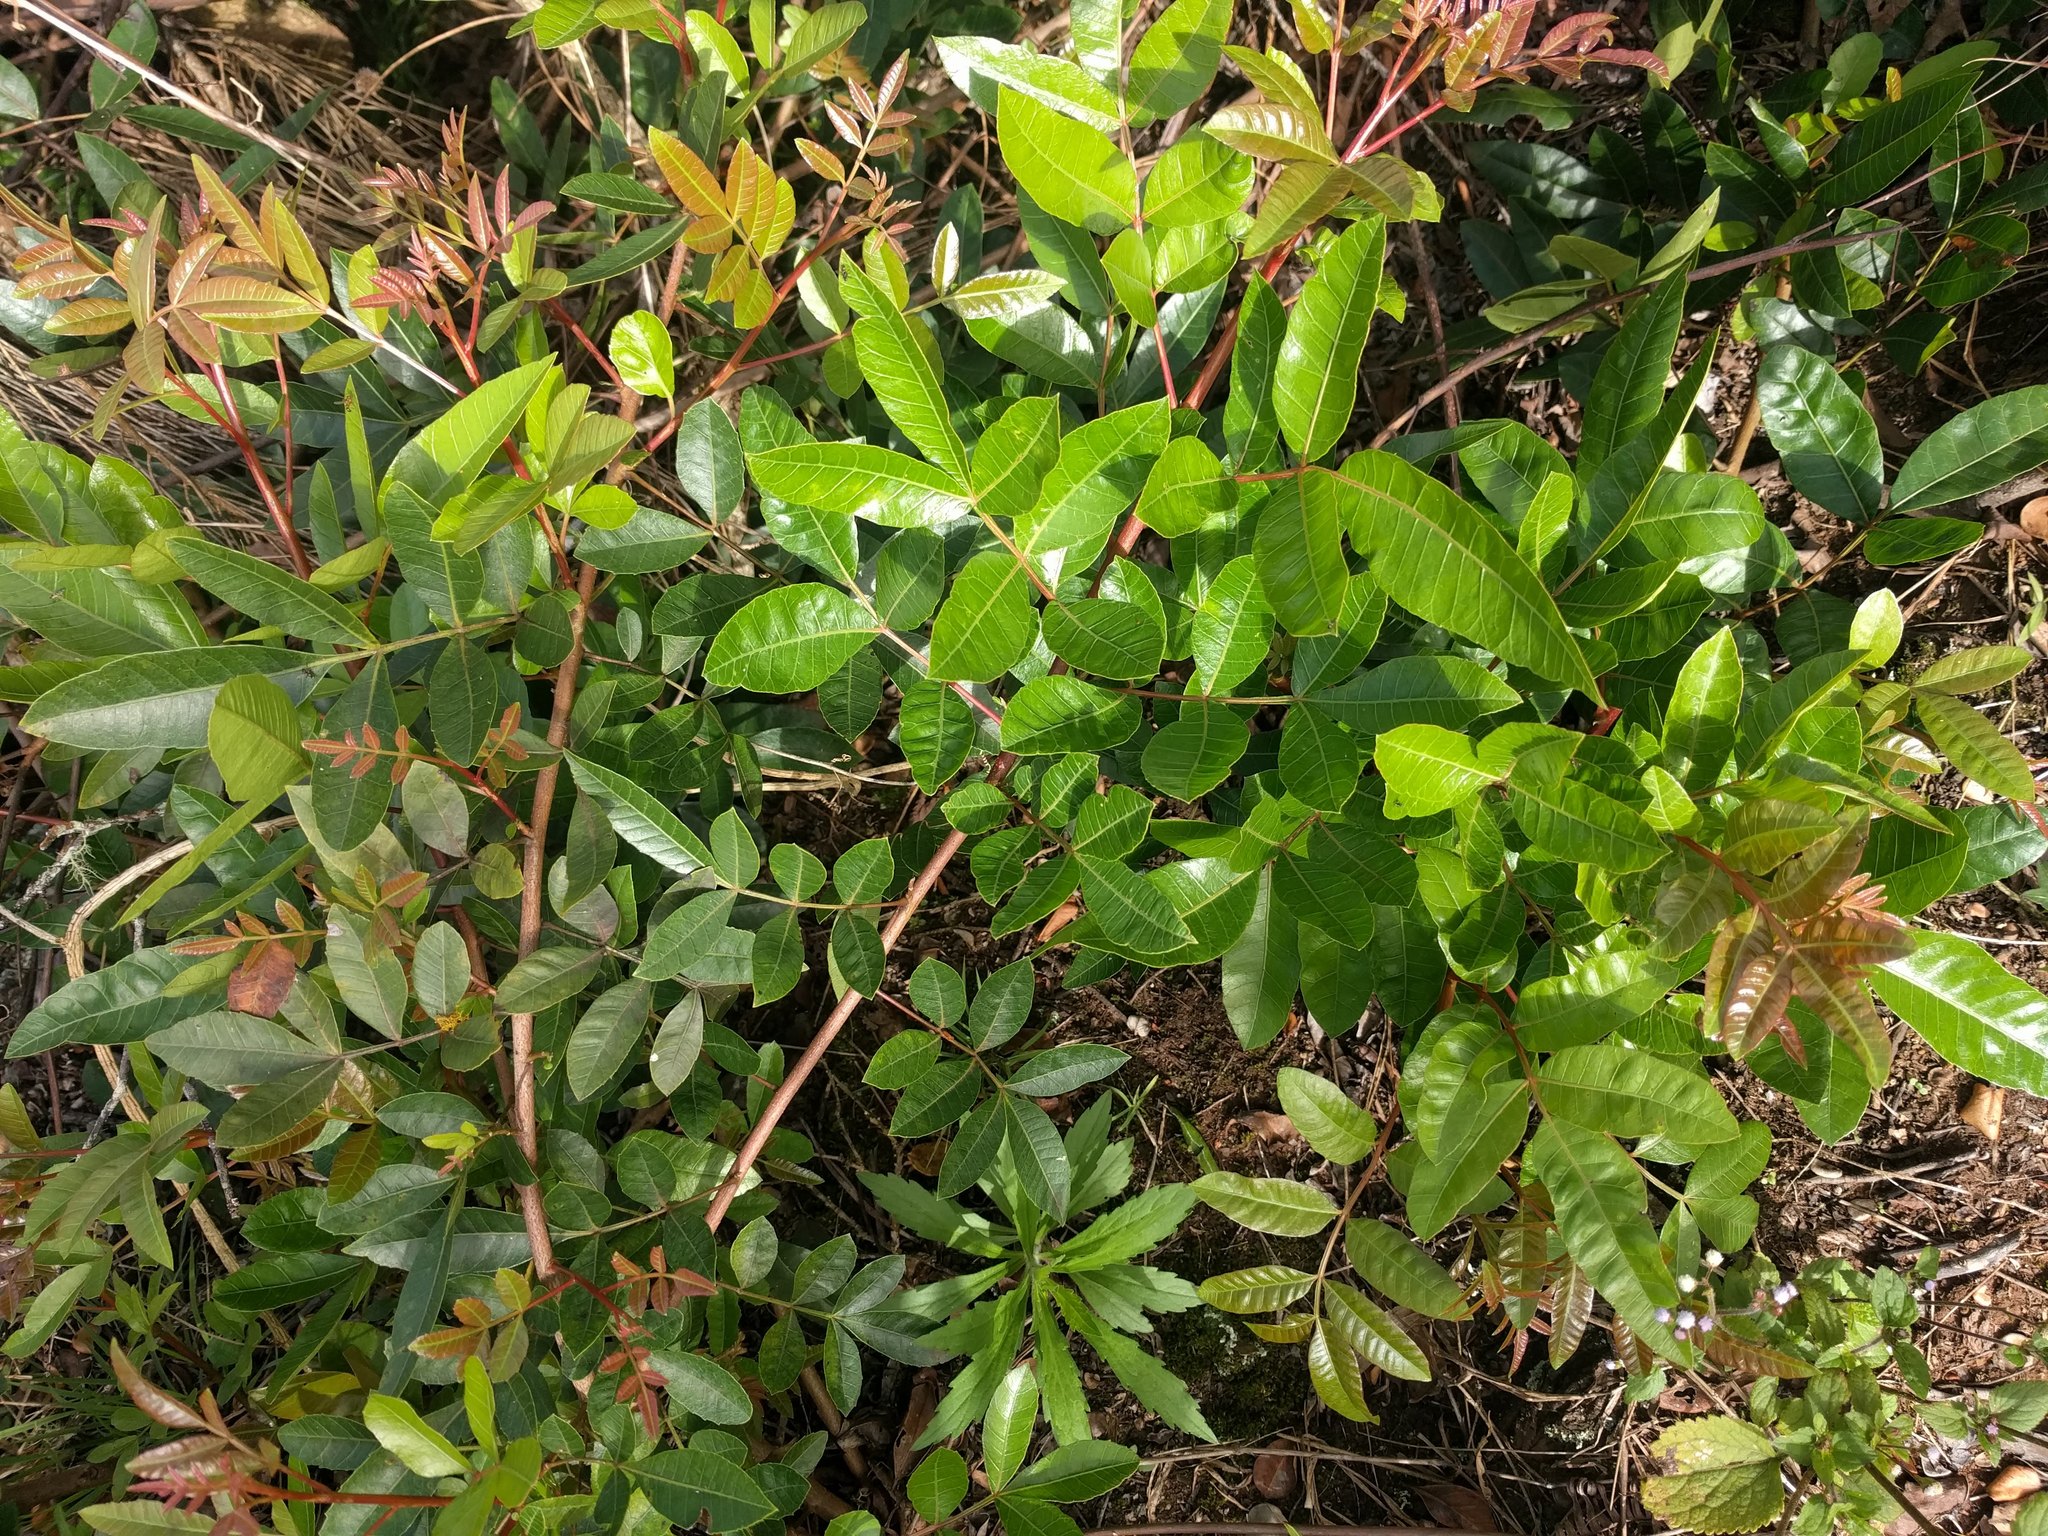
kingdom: Plantae
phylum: Tracheophyta
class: Magnoliopsida
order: Sapindales
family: Anacardiaceae
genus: Schinus
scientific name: Schinus terebinthifolia
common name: Brazilian peppertree
